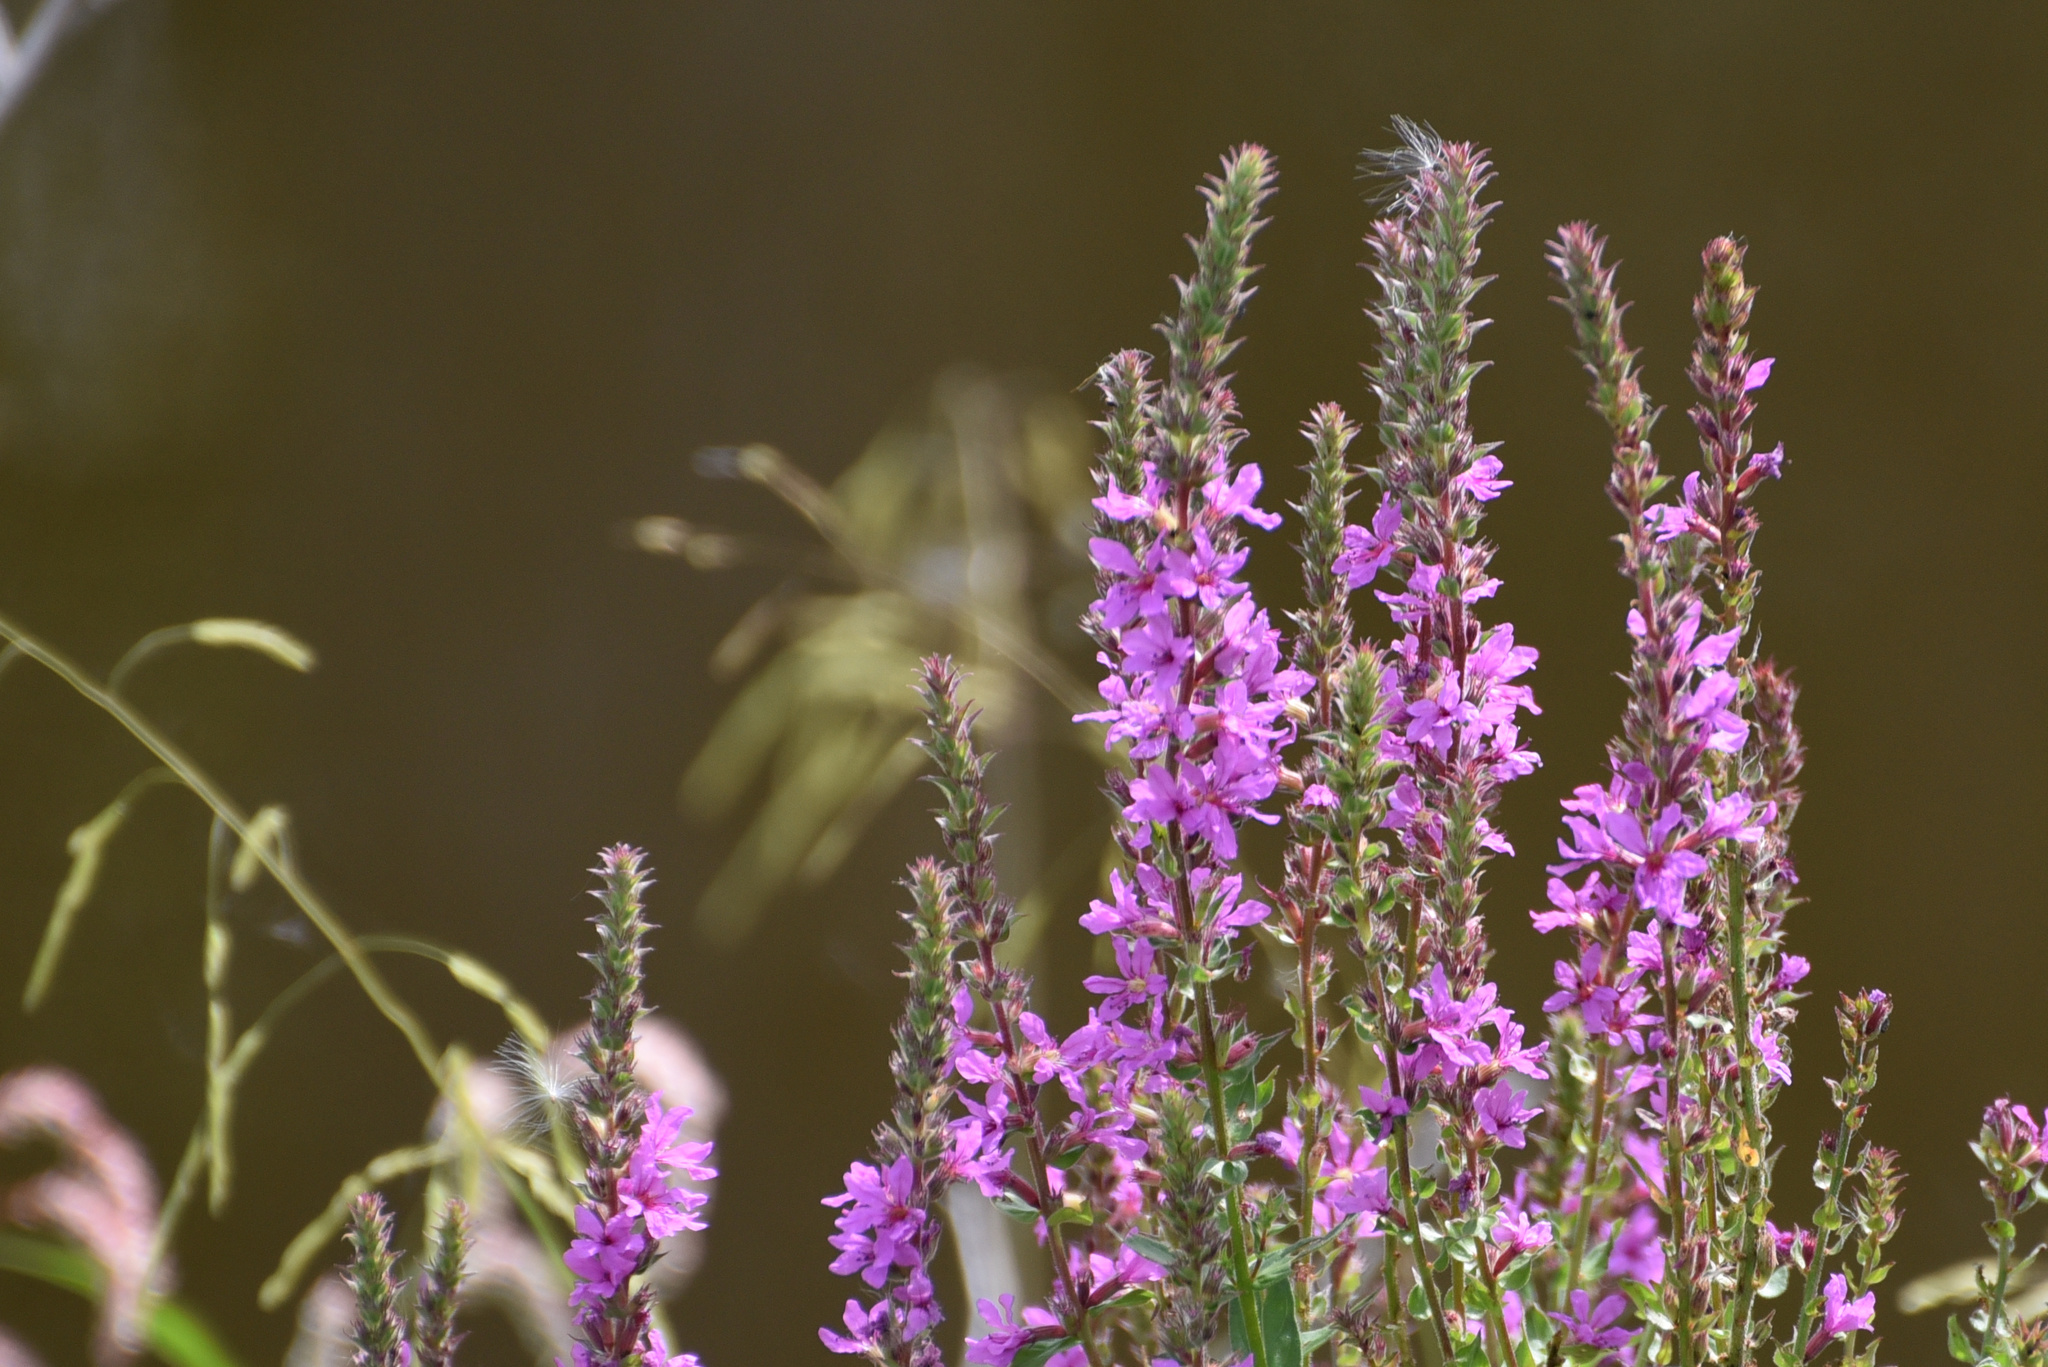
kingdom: Plantae
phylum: Tracheophyta
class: Magnoliopsida
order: Myrtales
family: Lythraceae
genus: Lythrum
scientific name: Lythrum salicaria
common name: Purple loosestrife
